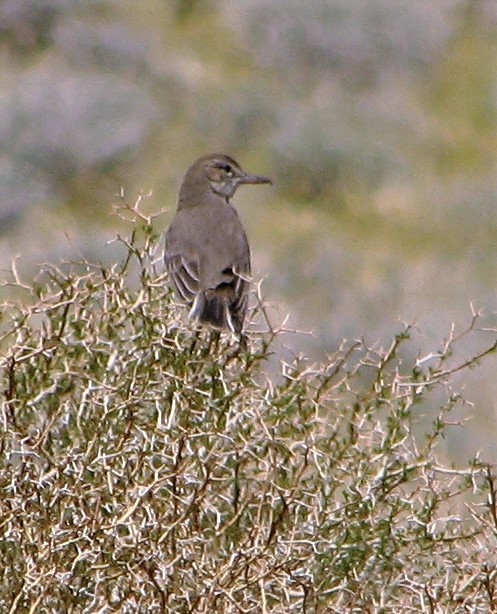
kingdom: Animalia
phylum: Chordata
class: Aves
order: Passeriformes
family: Tyrannidae
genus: Agriornis
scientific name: Agriornis micropterus
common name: Grey-bellied shrike-tyrant
